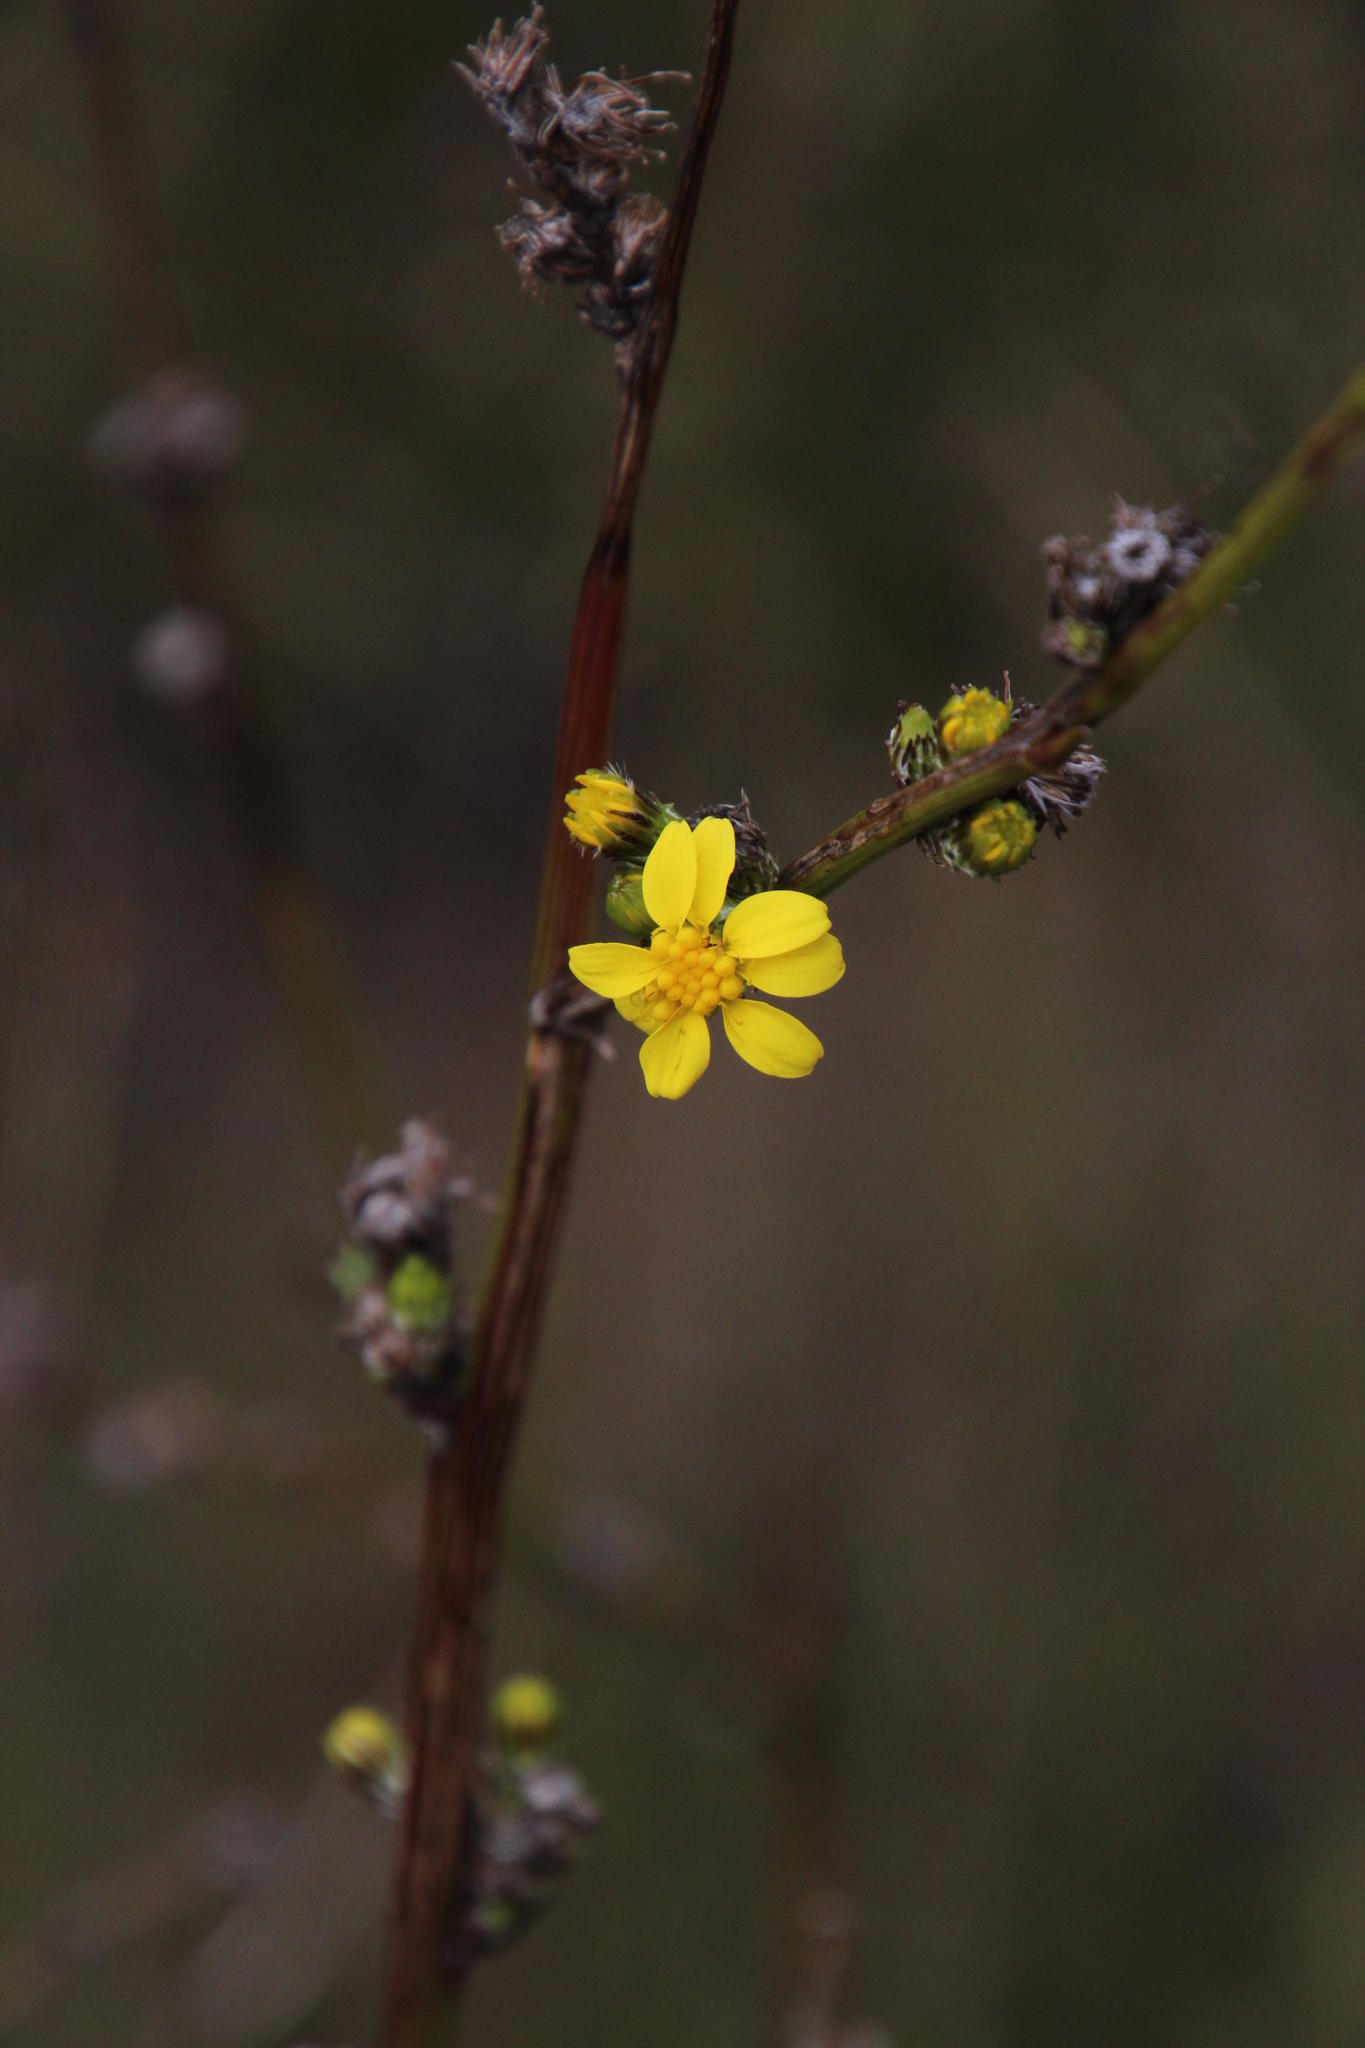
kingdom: Plantae
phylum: Tracheophyta
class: Magnoliopsida
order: Asterales
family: Asteraceae
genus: Senecio
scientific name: Senecio pubigerus
